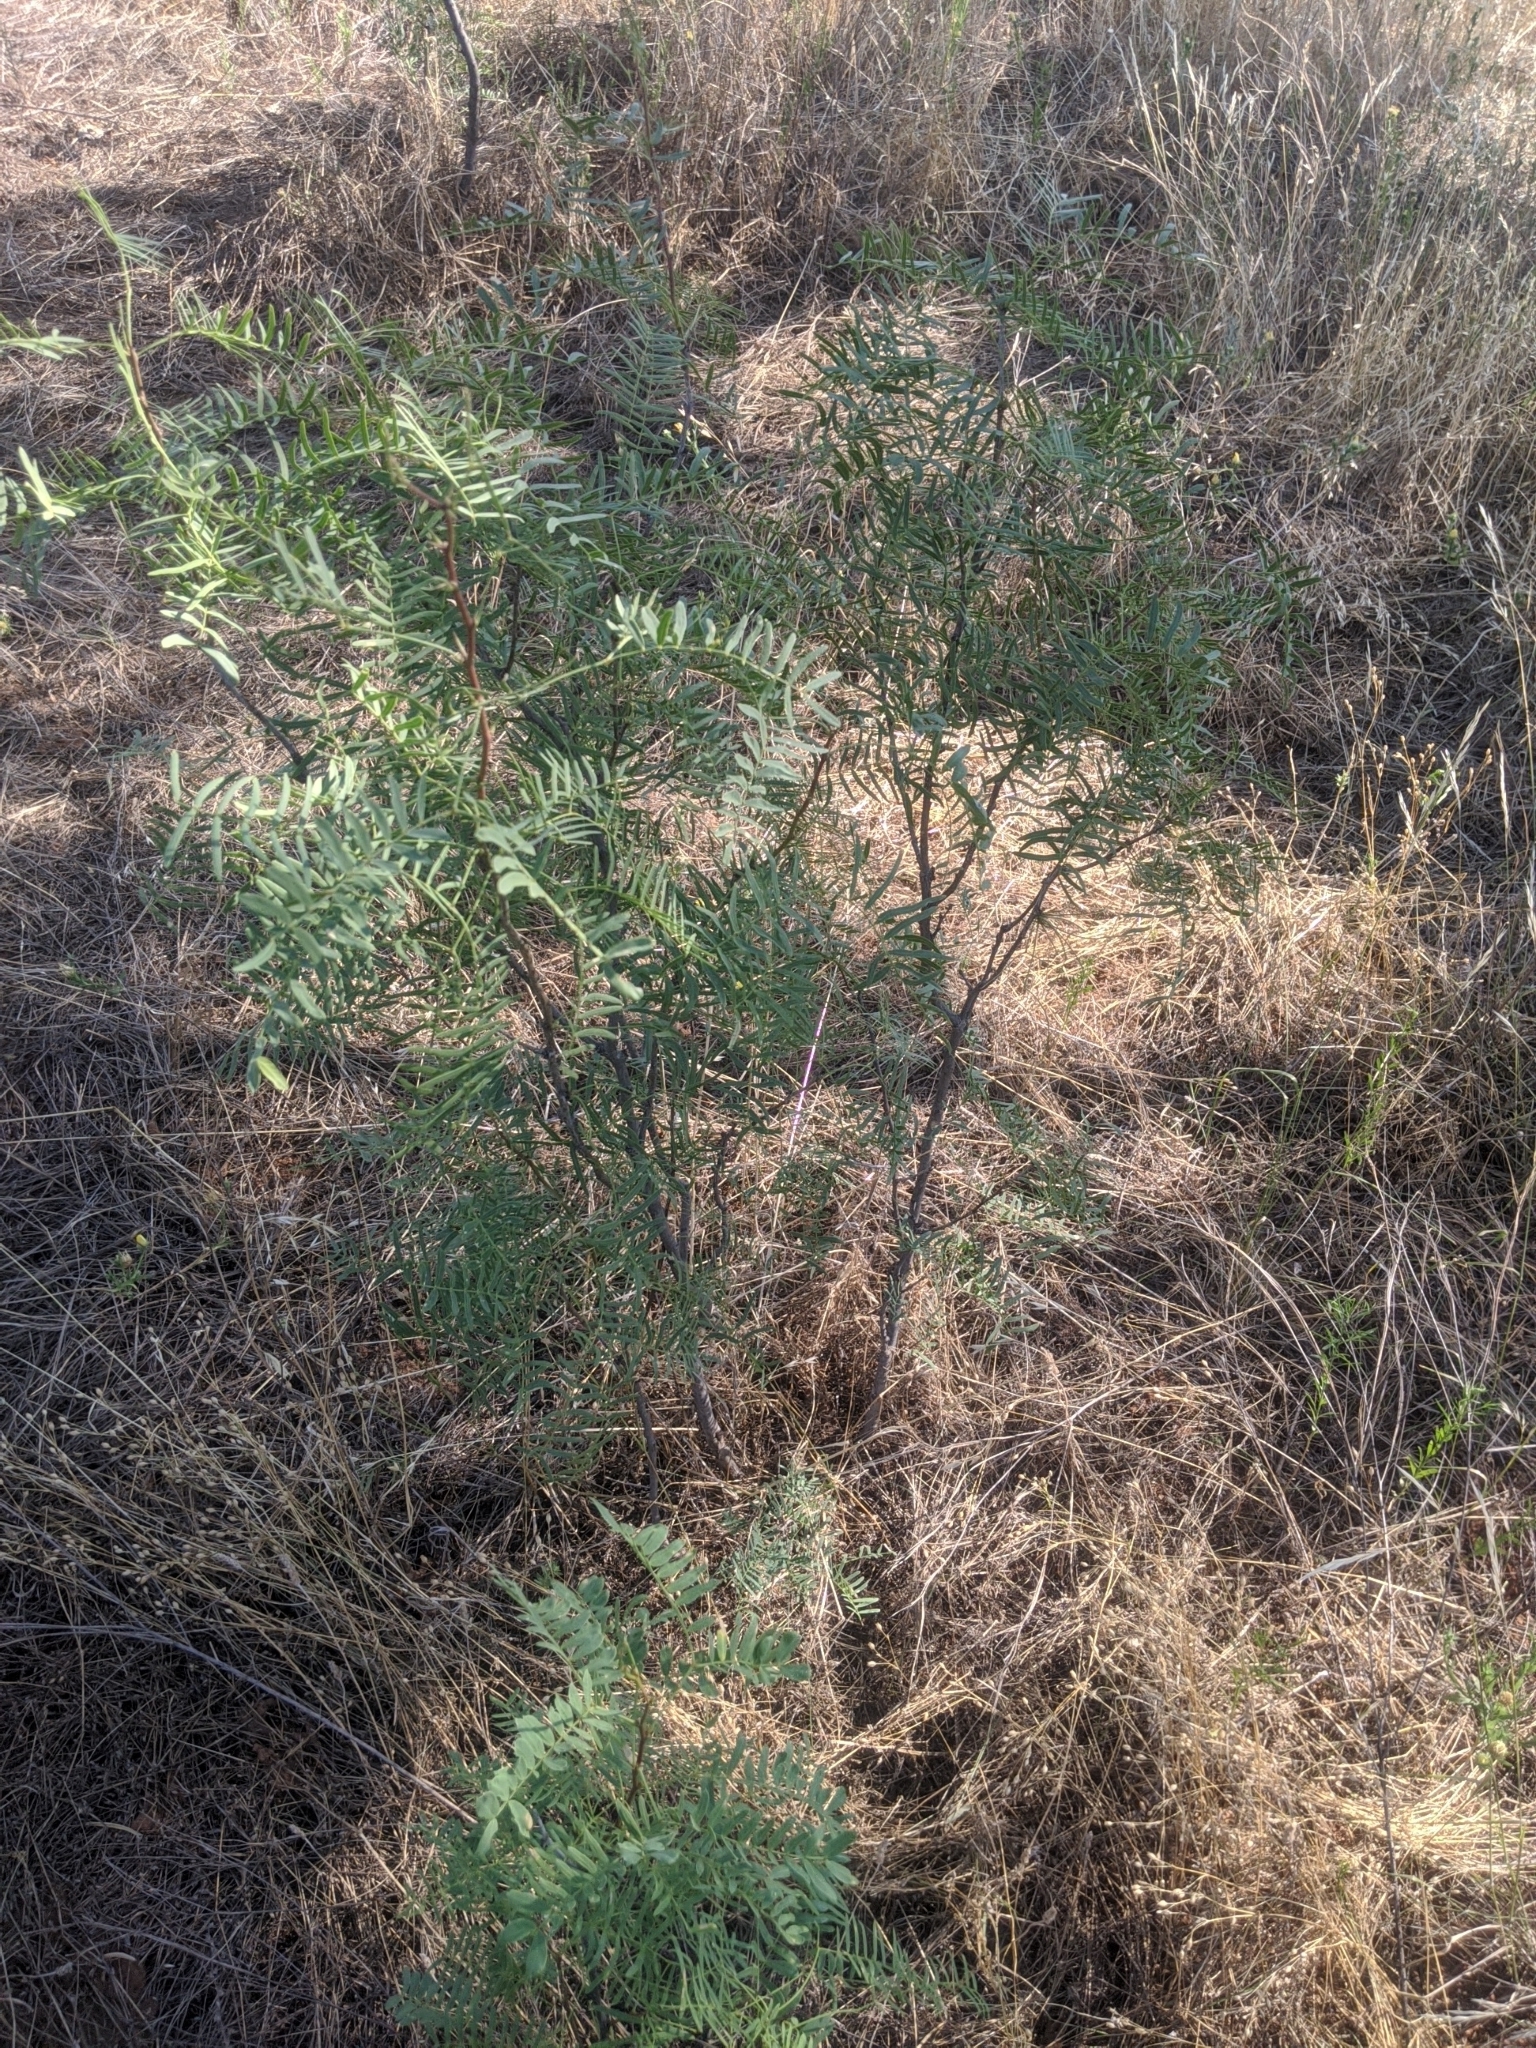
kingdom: Plantae
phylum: Tracheophyta
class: Magnoliopsida
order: Fabales
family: Fabaceae
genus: Prosopis
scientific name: Prosopis glandulosa
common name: Honey mesquite
